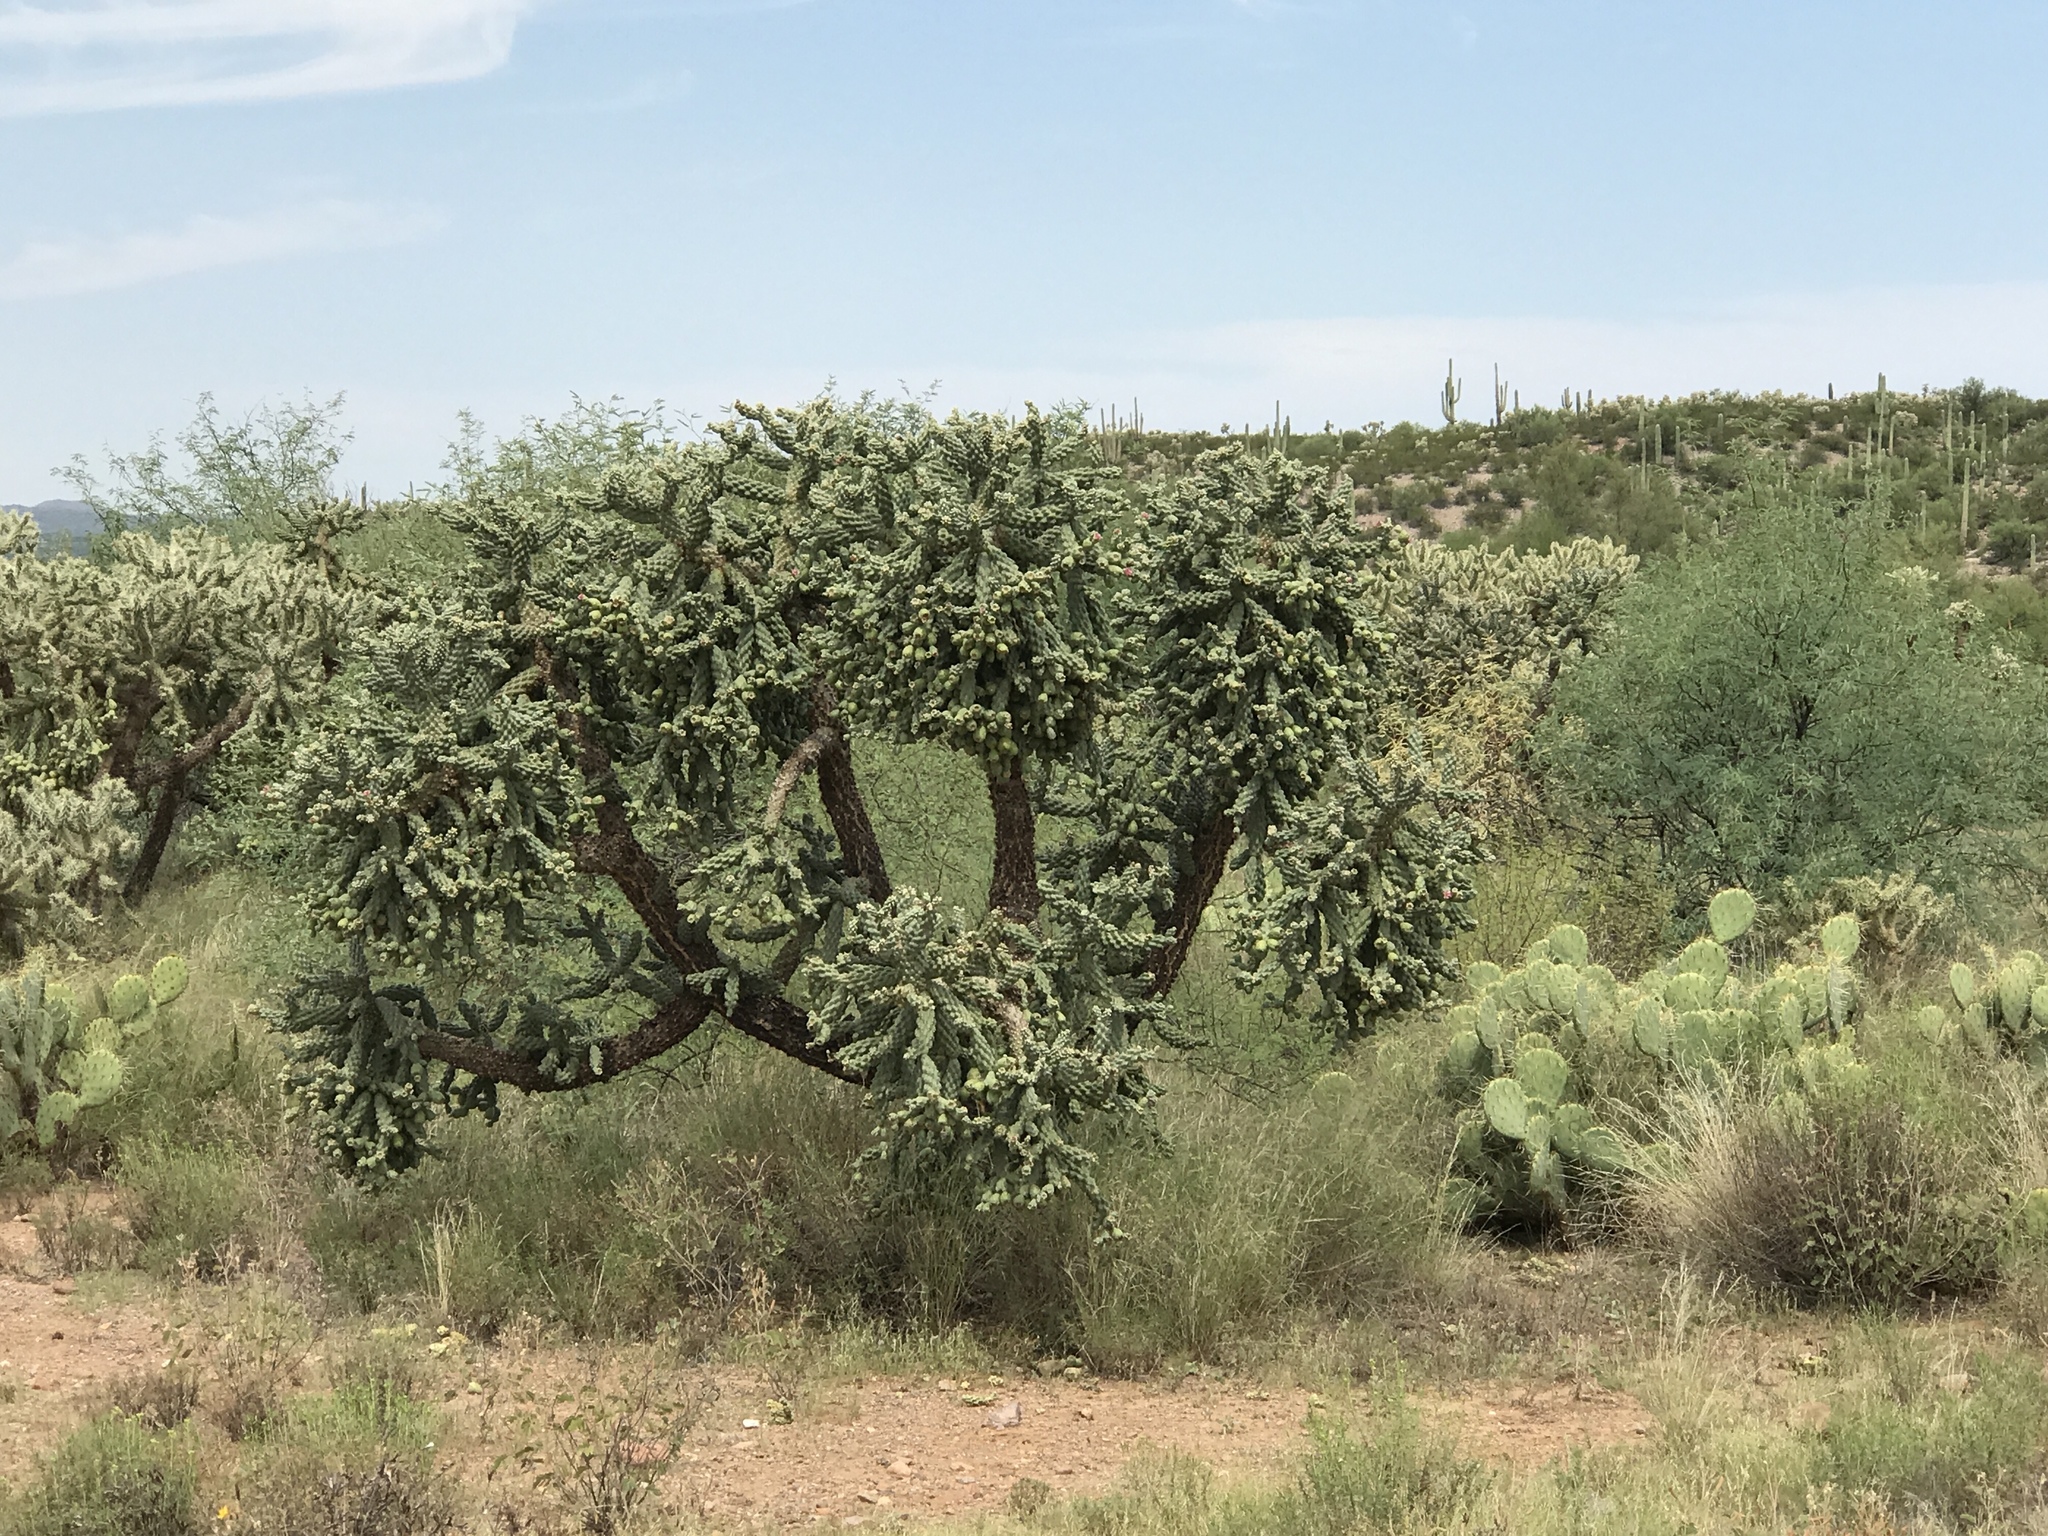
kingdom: Plantae
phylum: Tracheophyta
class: Magnoliopsida
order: Caryophyllales
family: Cactaceae
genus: Cylindropuntia
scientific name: Cylindropuntia fulgida
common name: Jumping cholla
